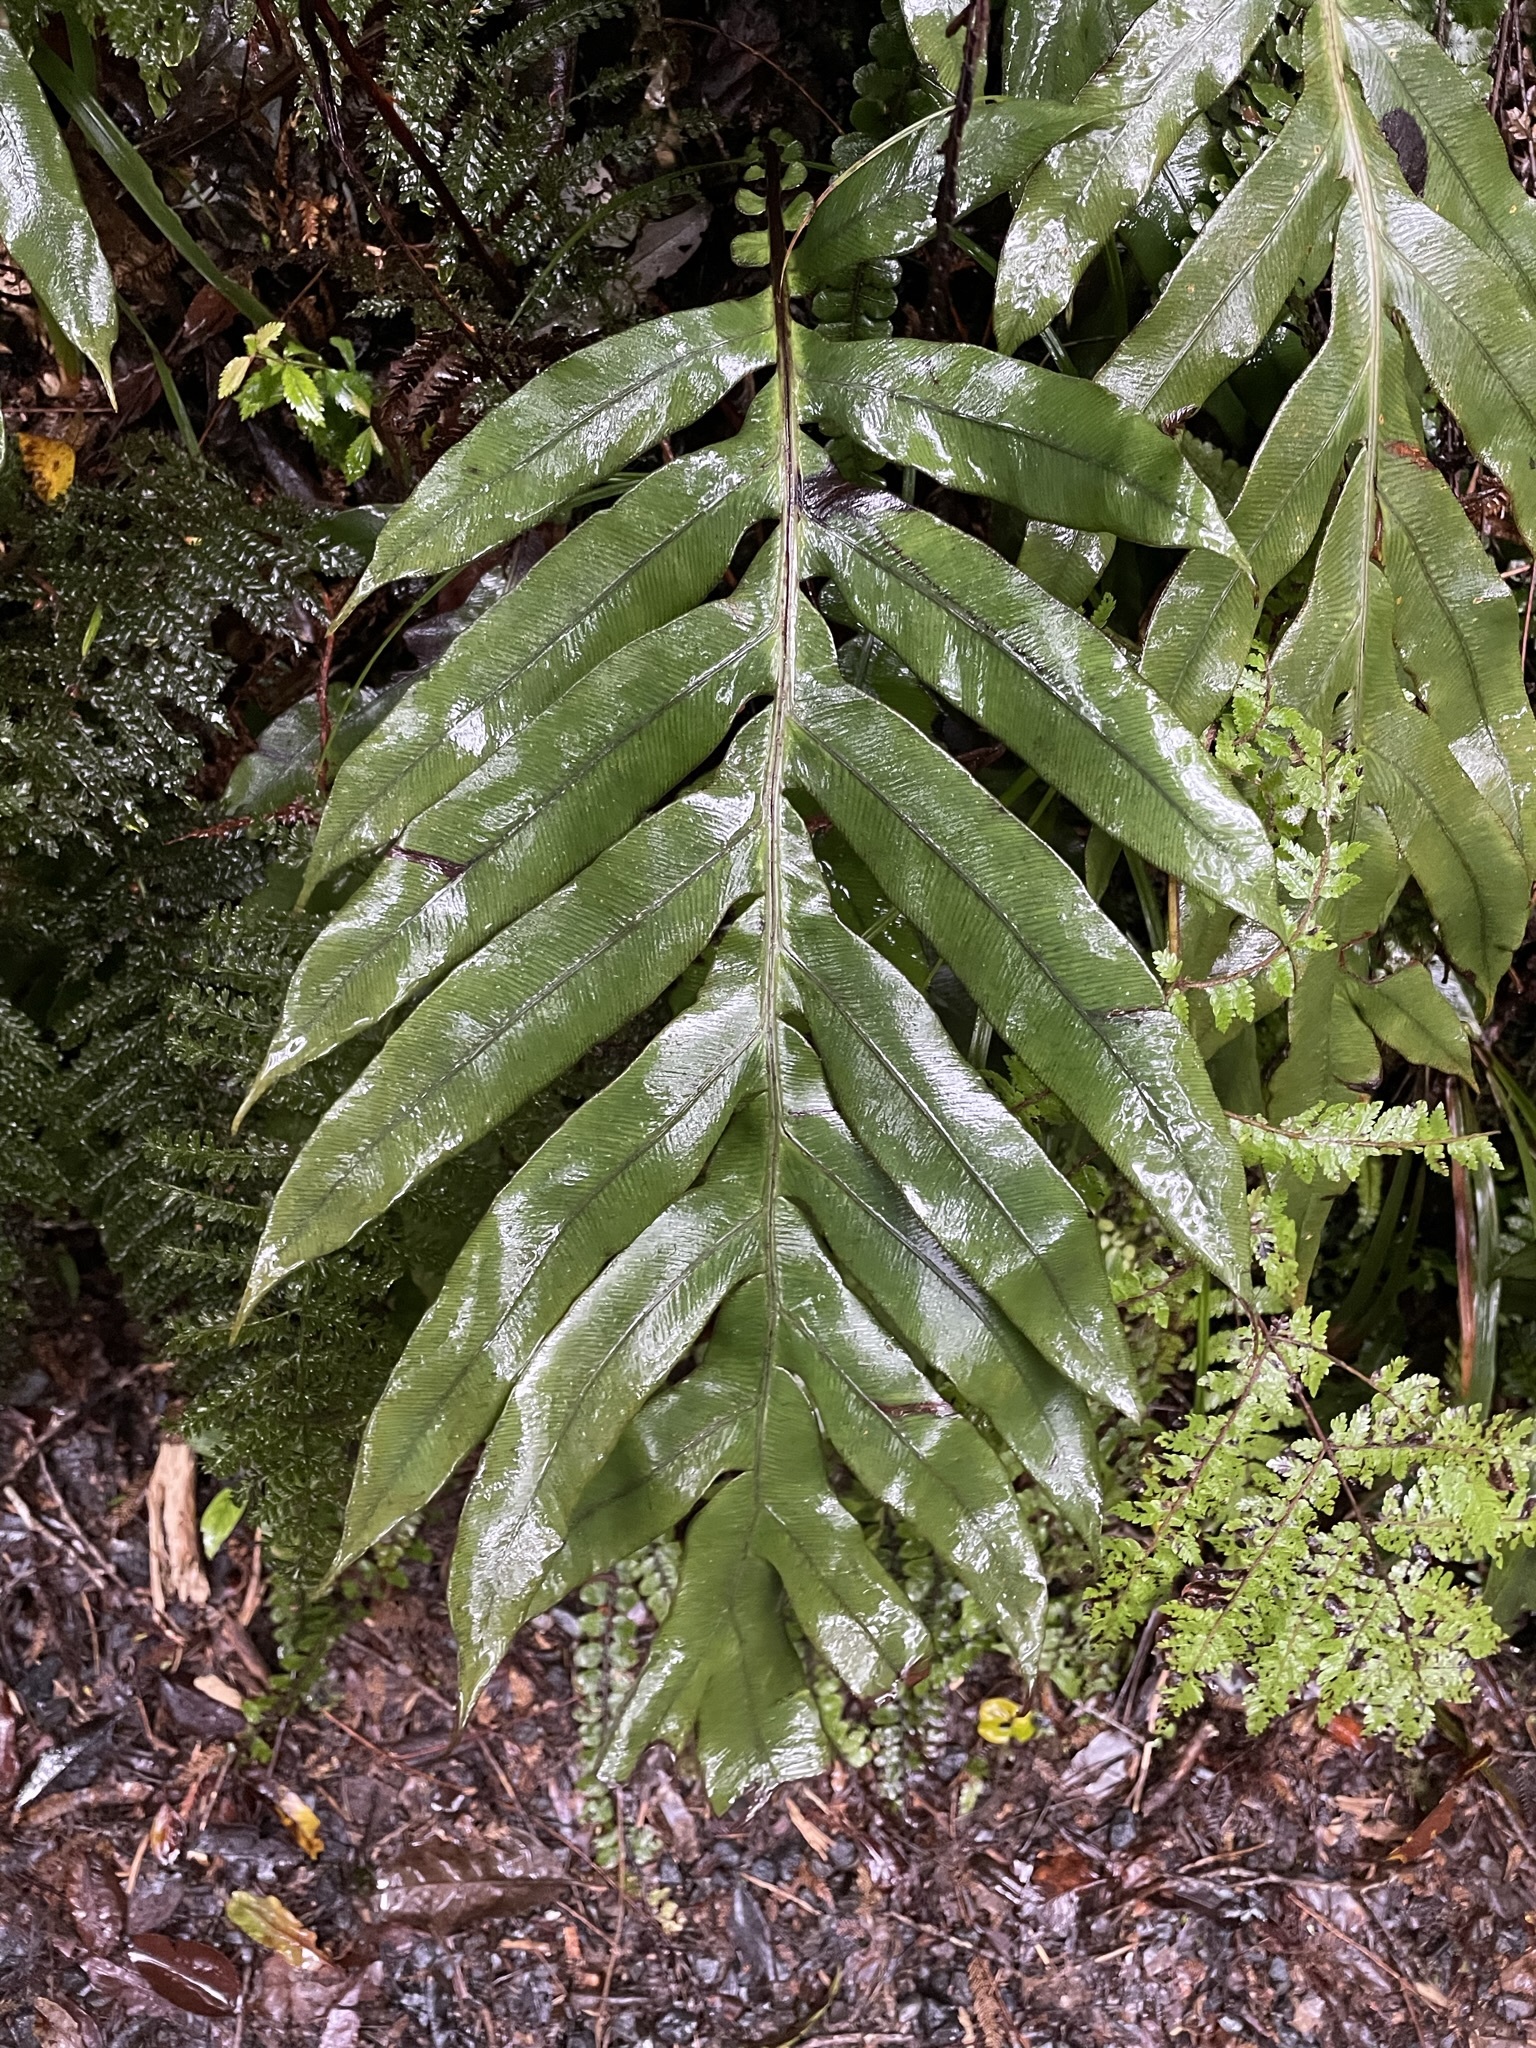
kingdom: Plantae
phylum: Tracheophyta
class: Polypodiopsida
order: Polypodiales
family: Blechnaceae
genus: Austroblechnum
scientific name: Austroblechnum colensoi
